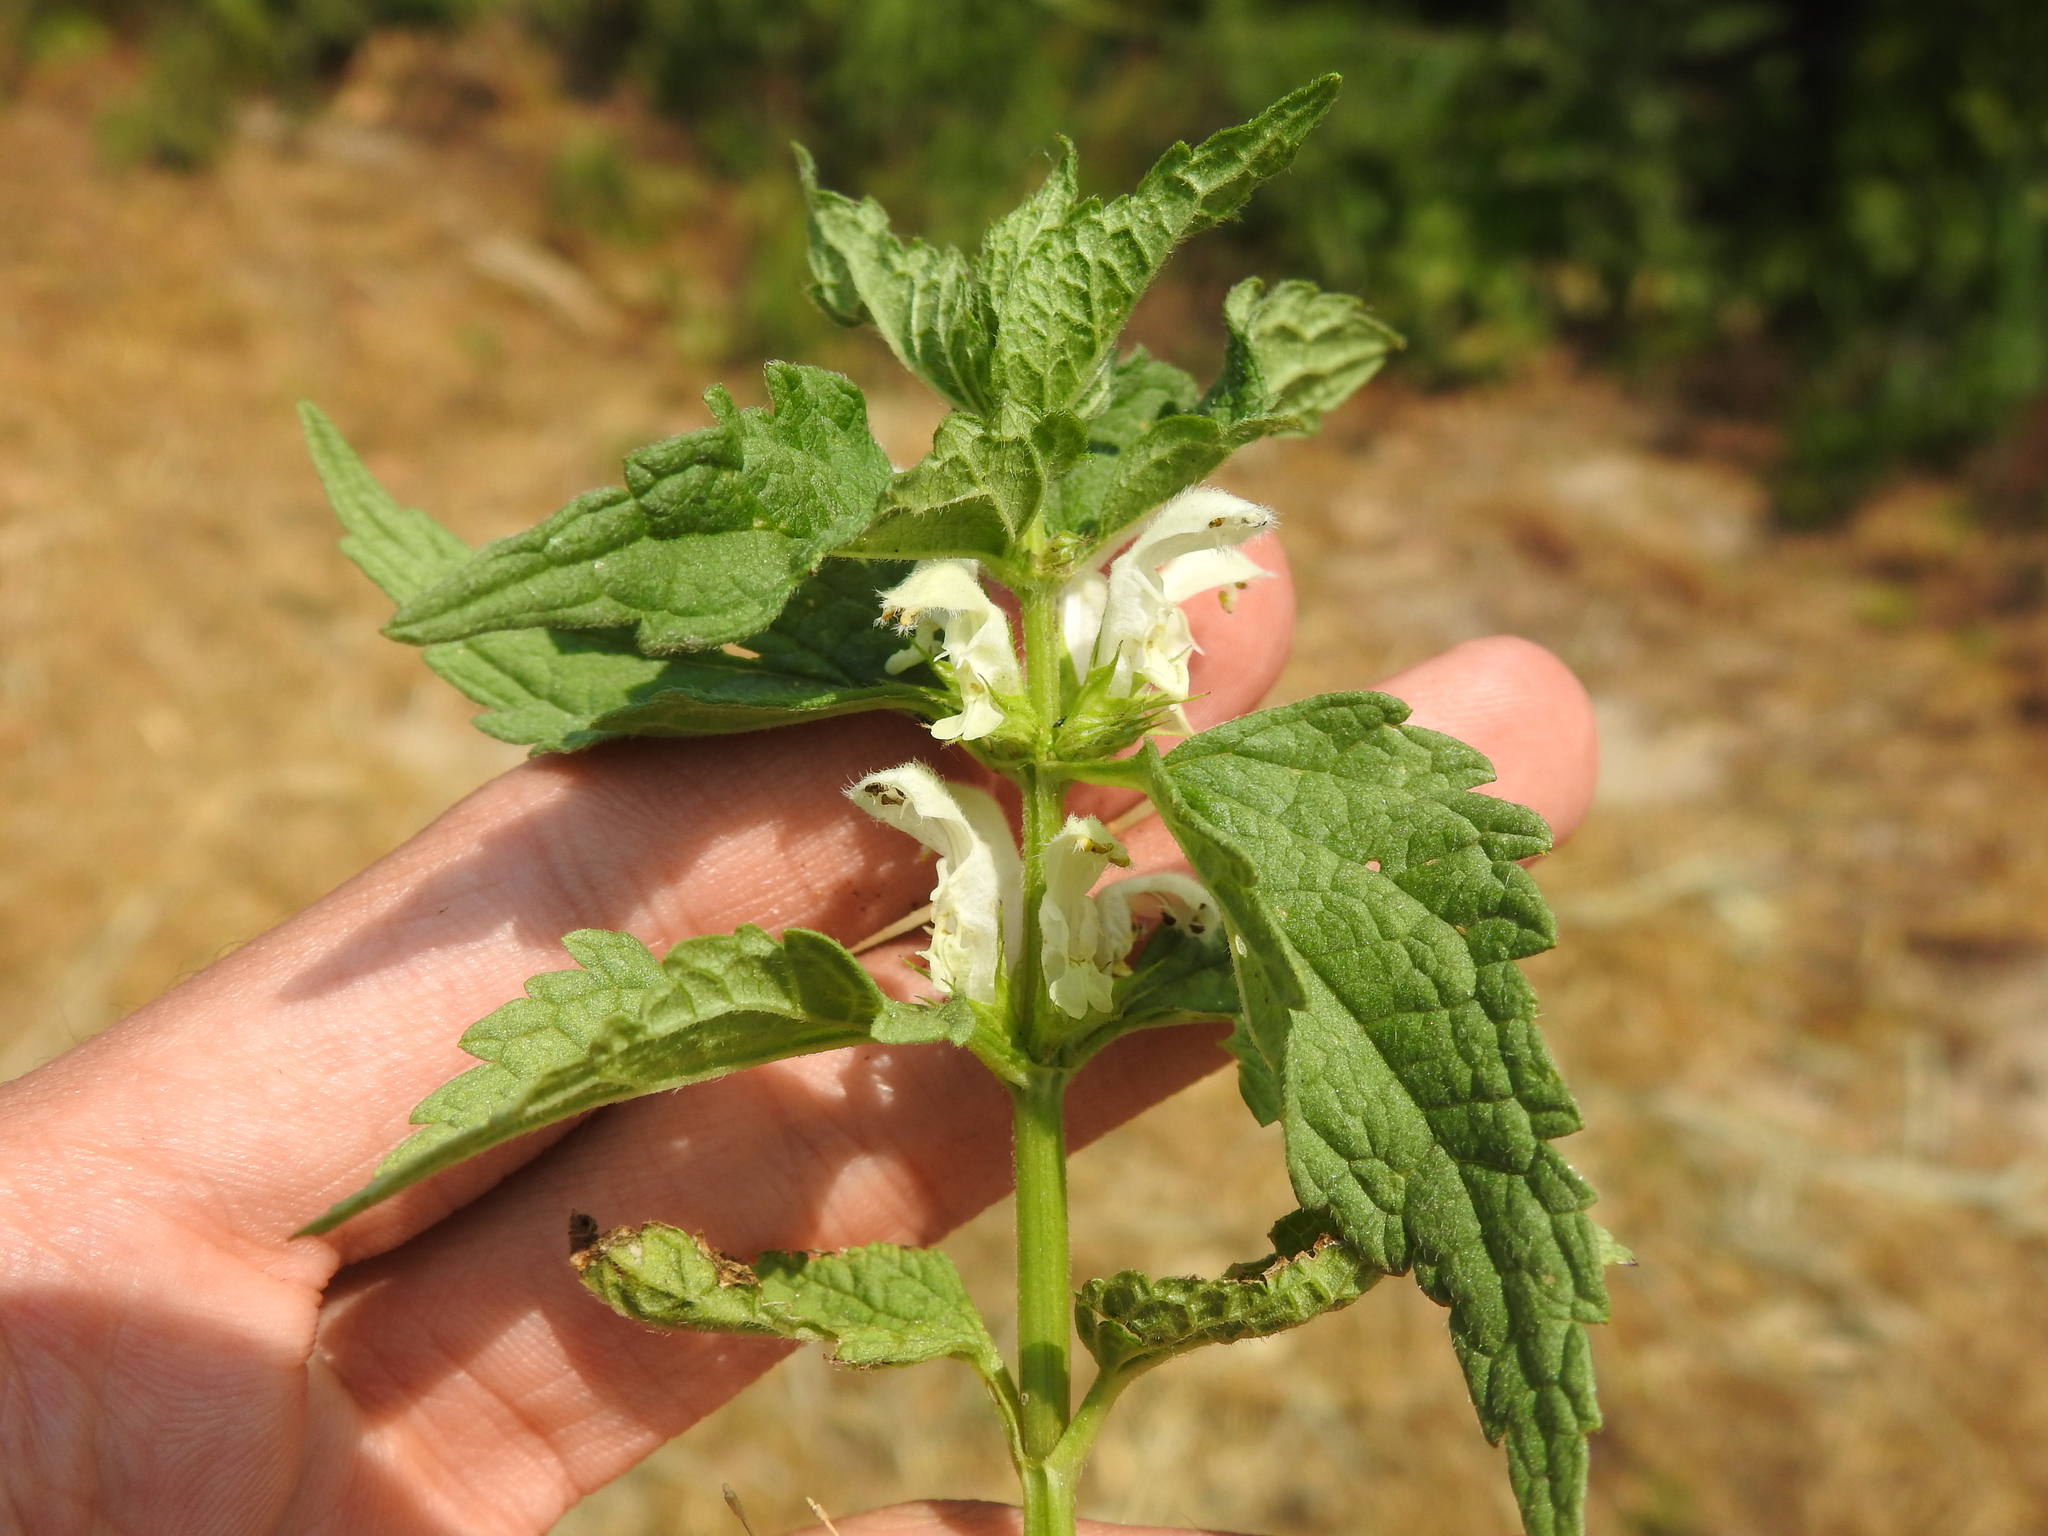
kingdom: Plantae
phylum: Tracheophyta
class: Magnoliopsida
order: Lamiales
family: Lamiaceae
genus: Lamium
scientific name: Lamium album
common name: White dead-nettle
